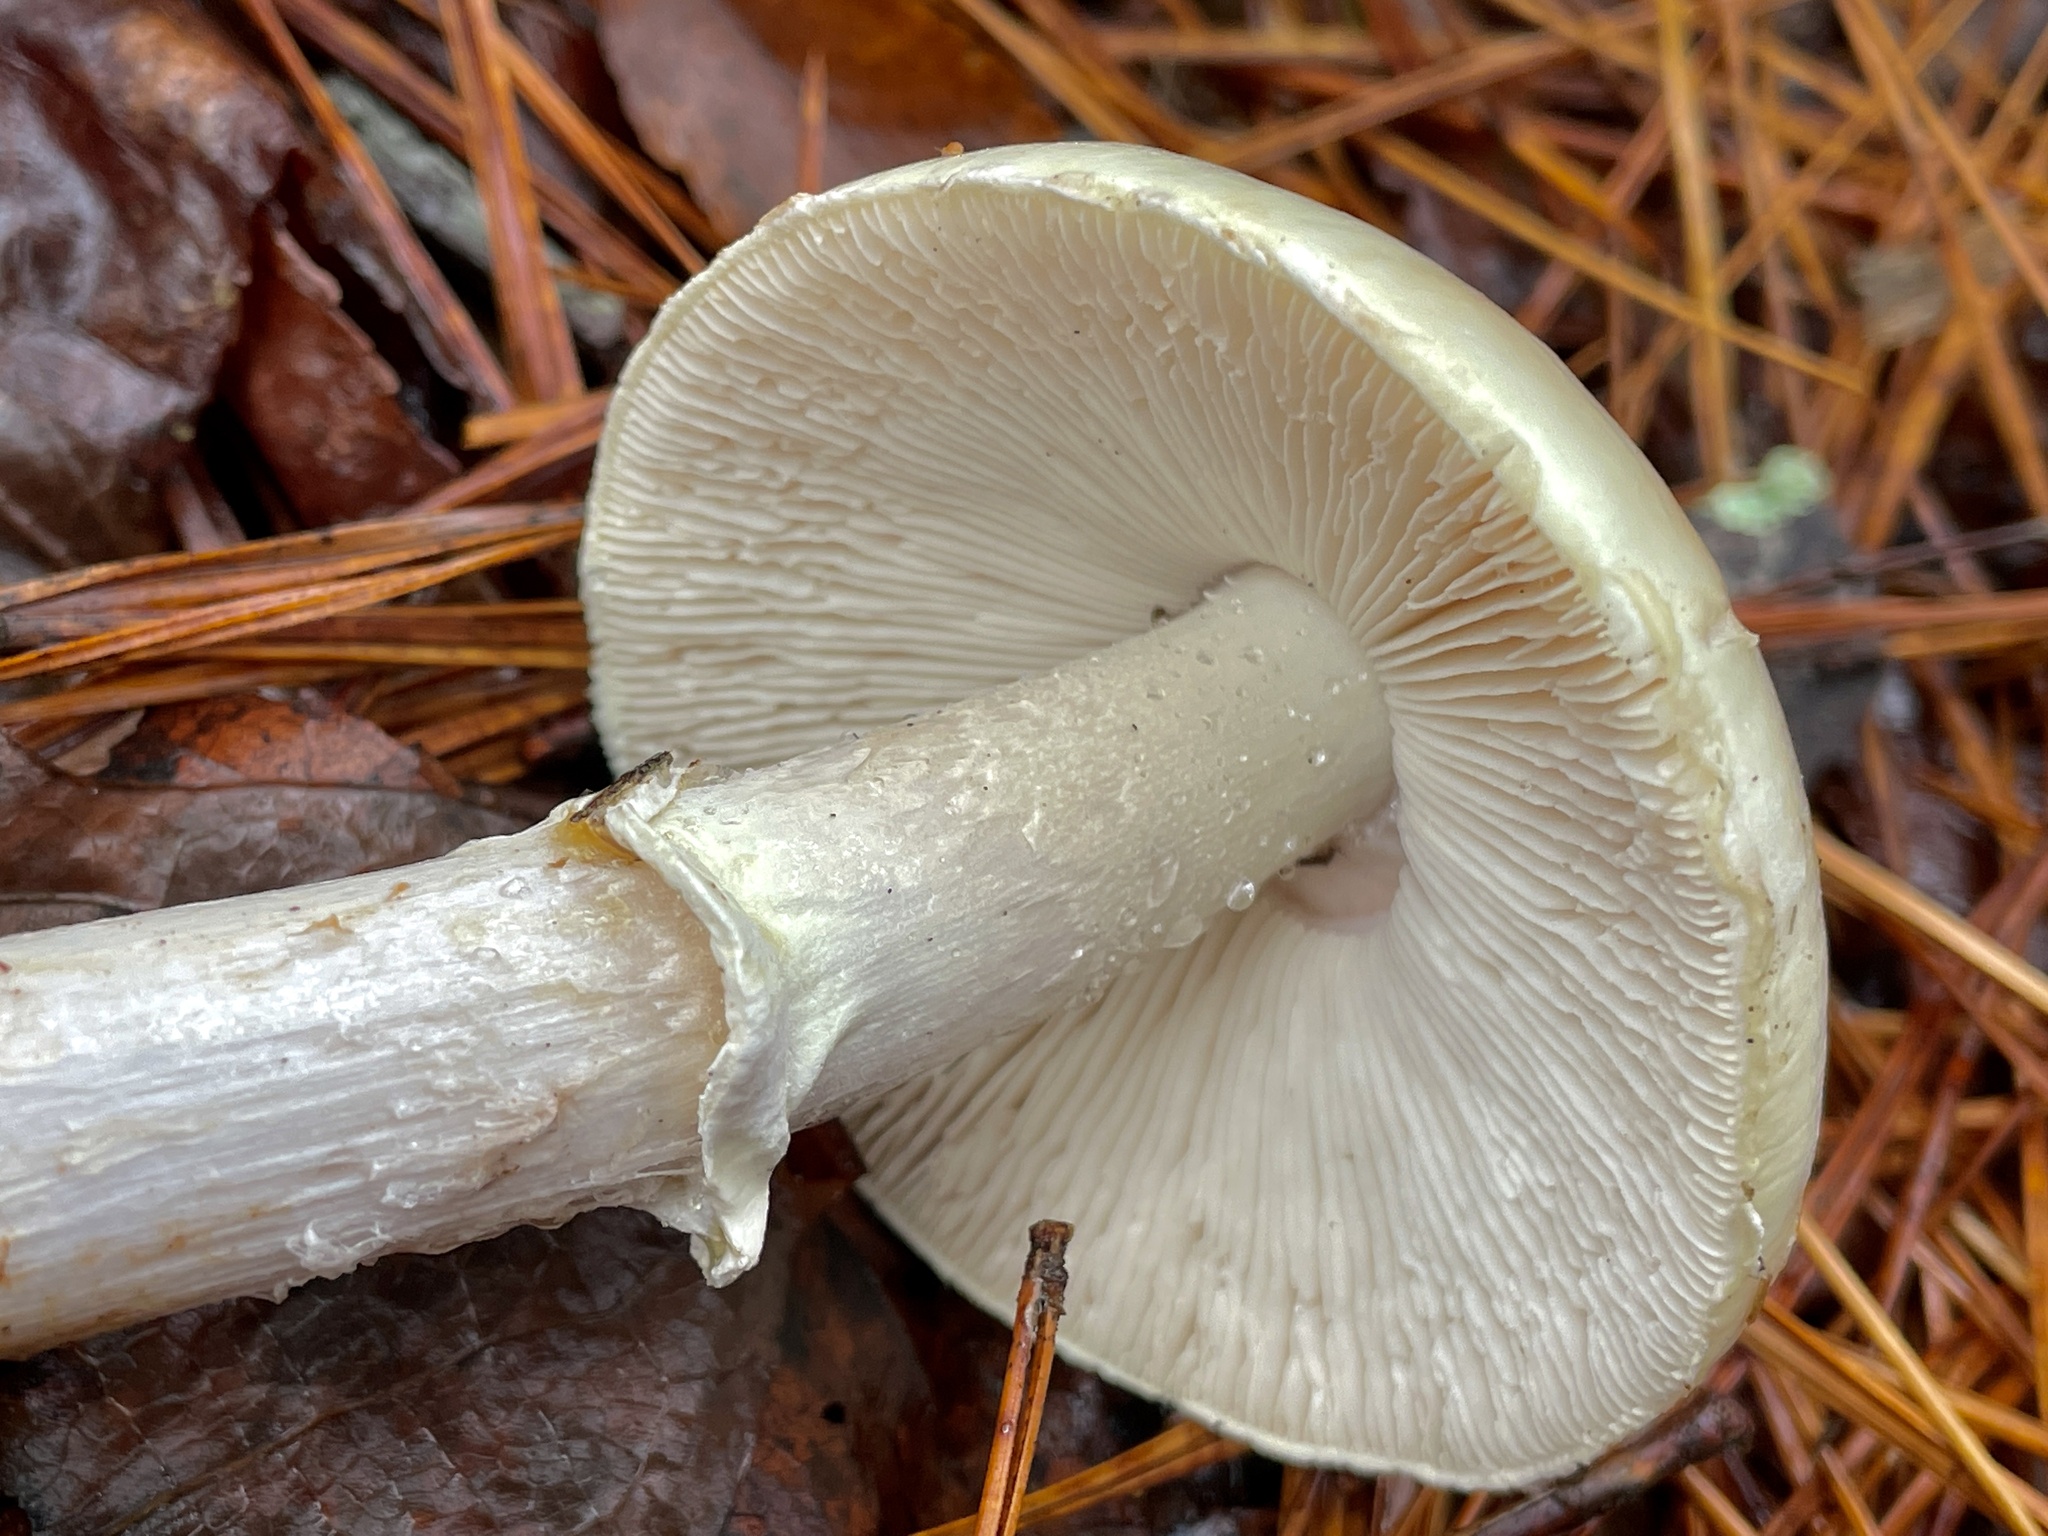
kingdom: Fungi
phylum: Basidiomycota
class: Agaricomycetes
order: Agaricales
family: Amanitaceae
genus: Amanita
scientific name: Amanita lavendula
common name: Coker's lavender staining amanita
